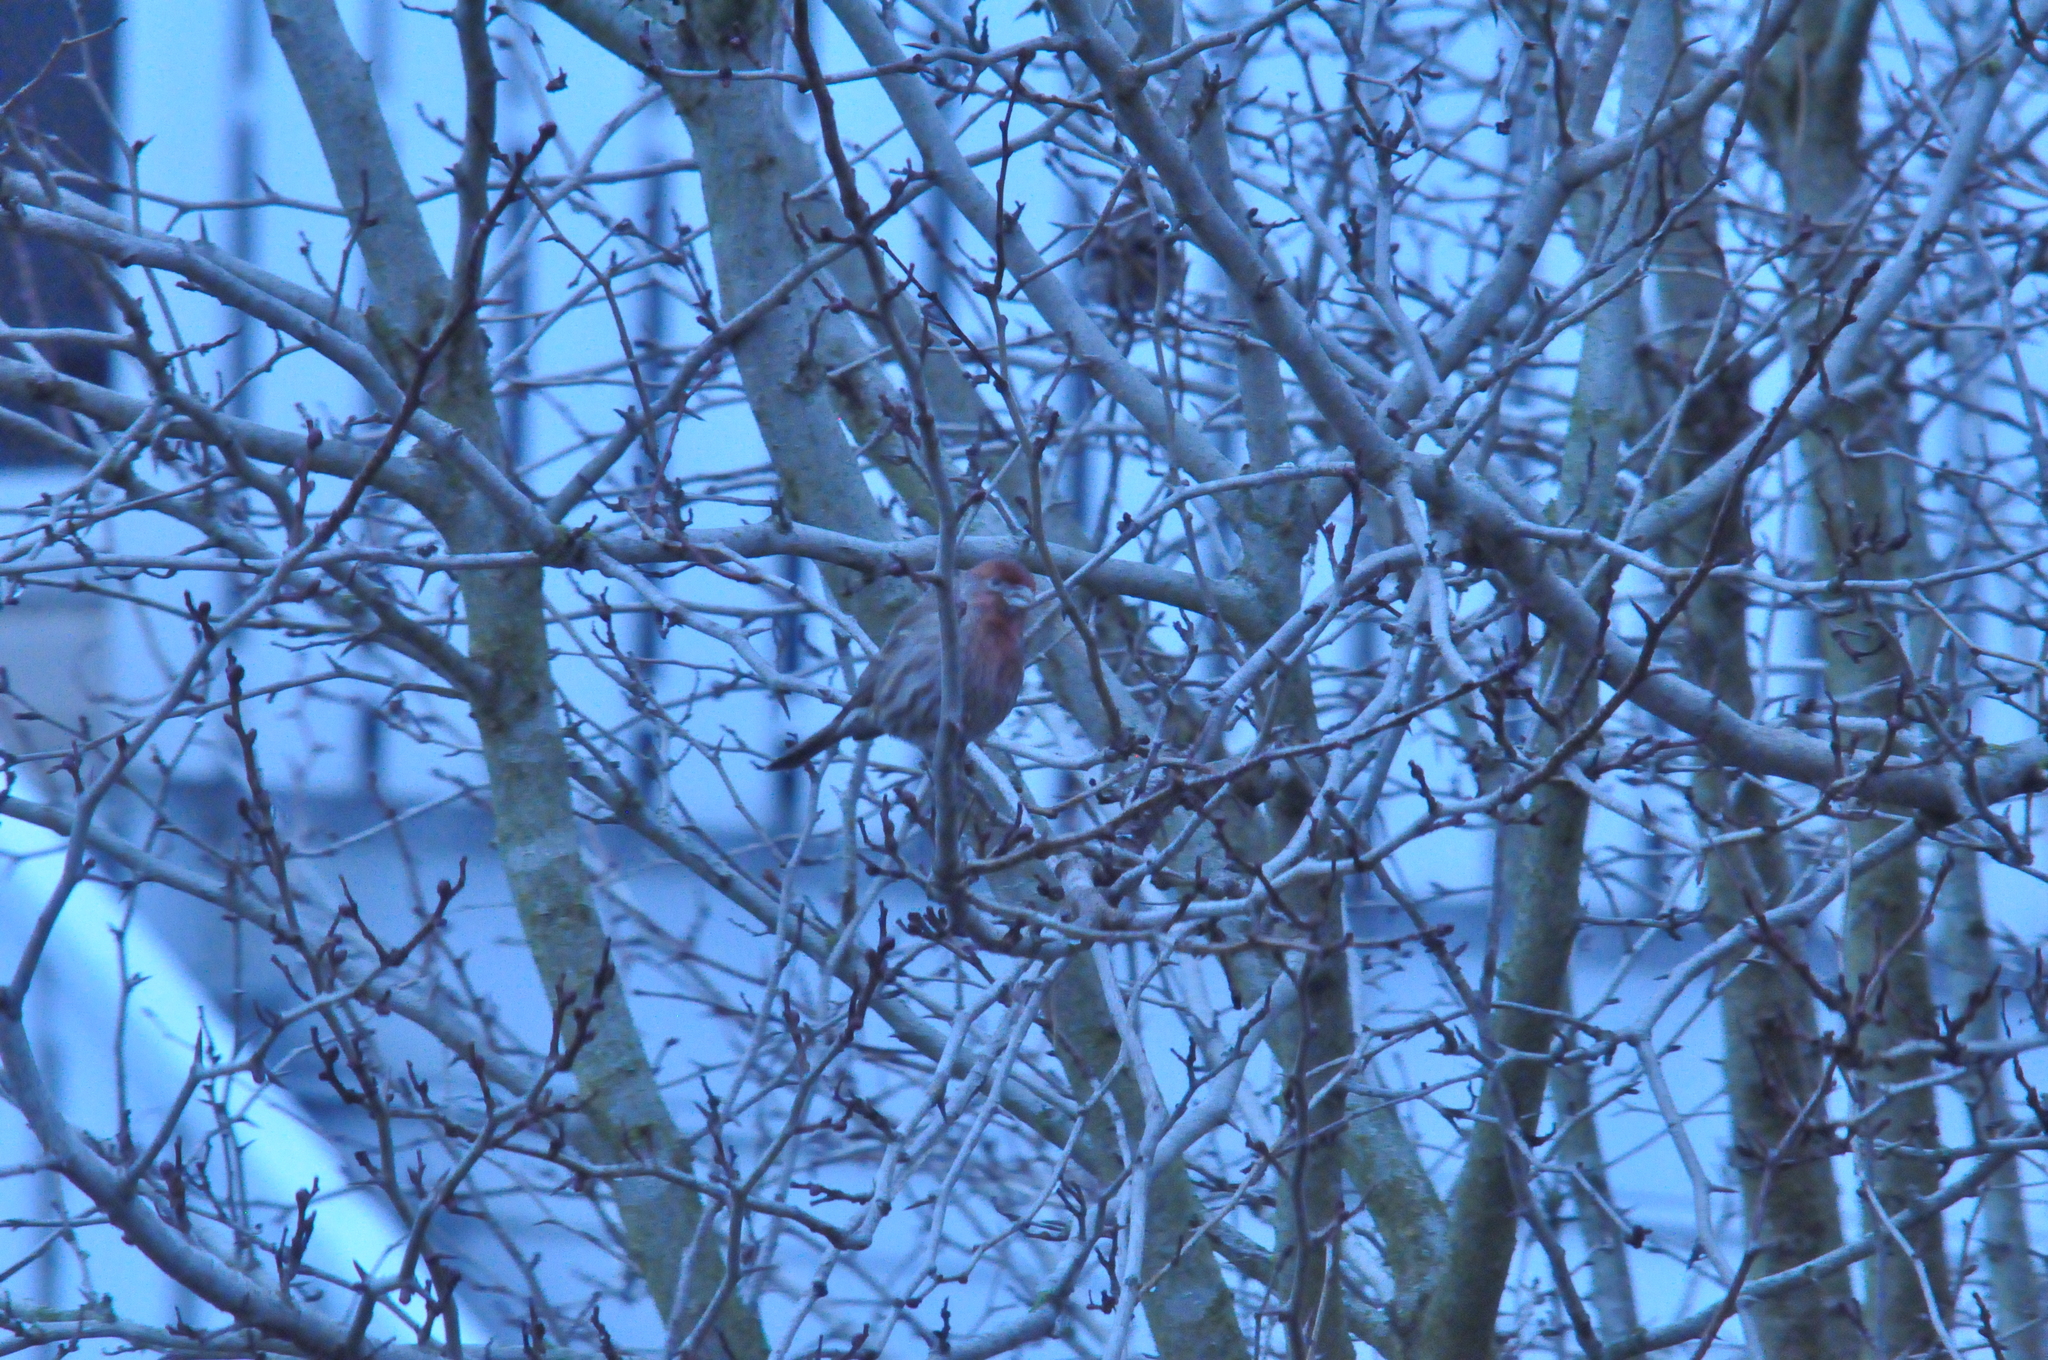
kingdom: Animalia
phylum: Chordata
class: Aves
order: Passeriformes
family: Fringillidae
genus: Haemorhous
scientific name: Haemorhous mexicanus
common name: House finch
